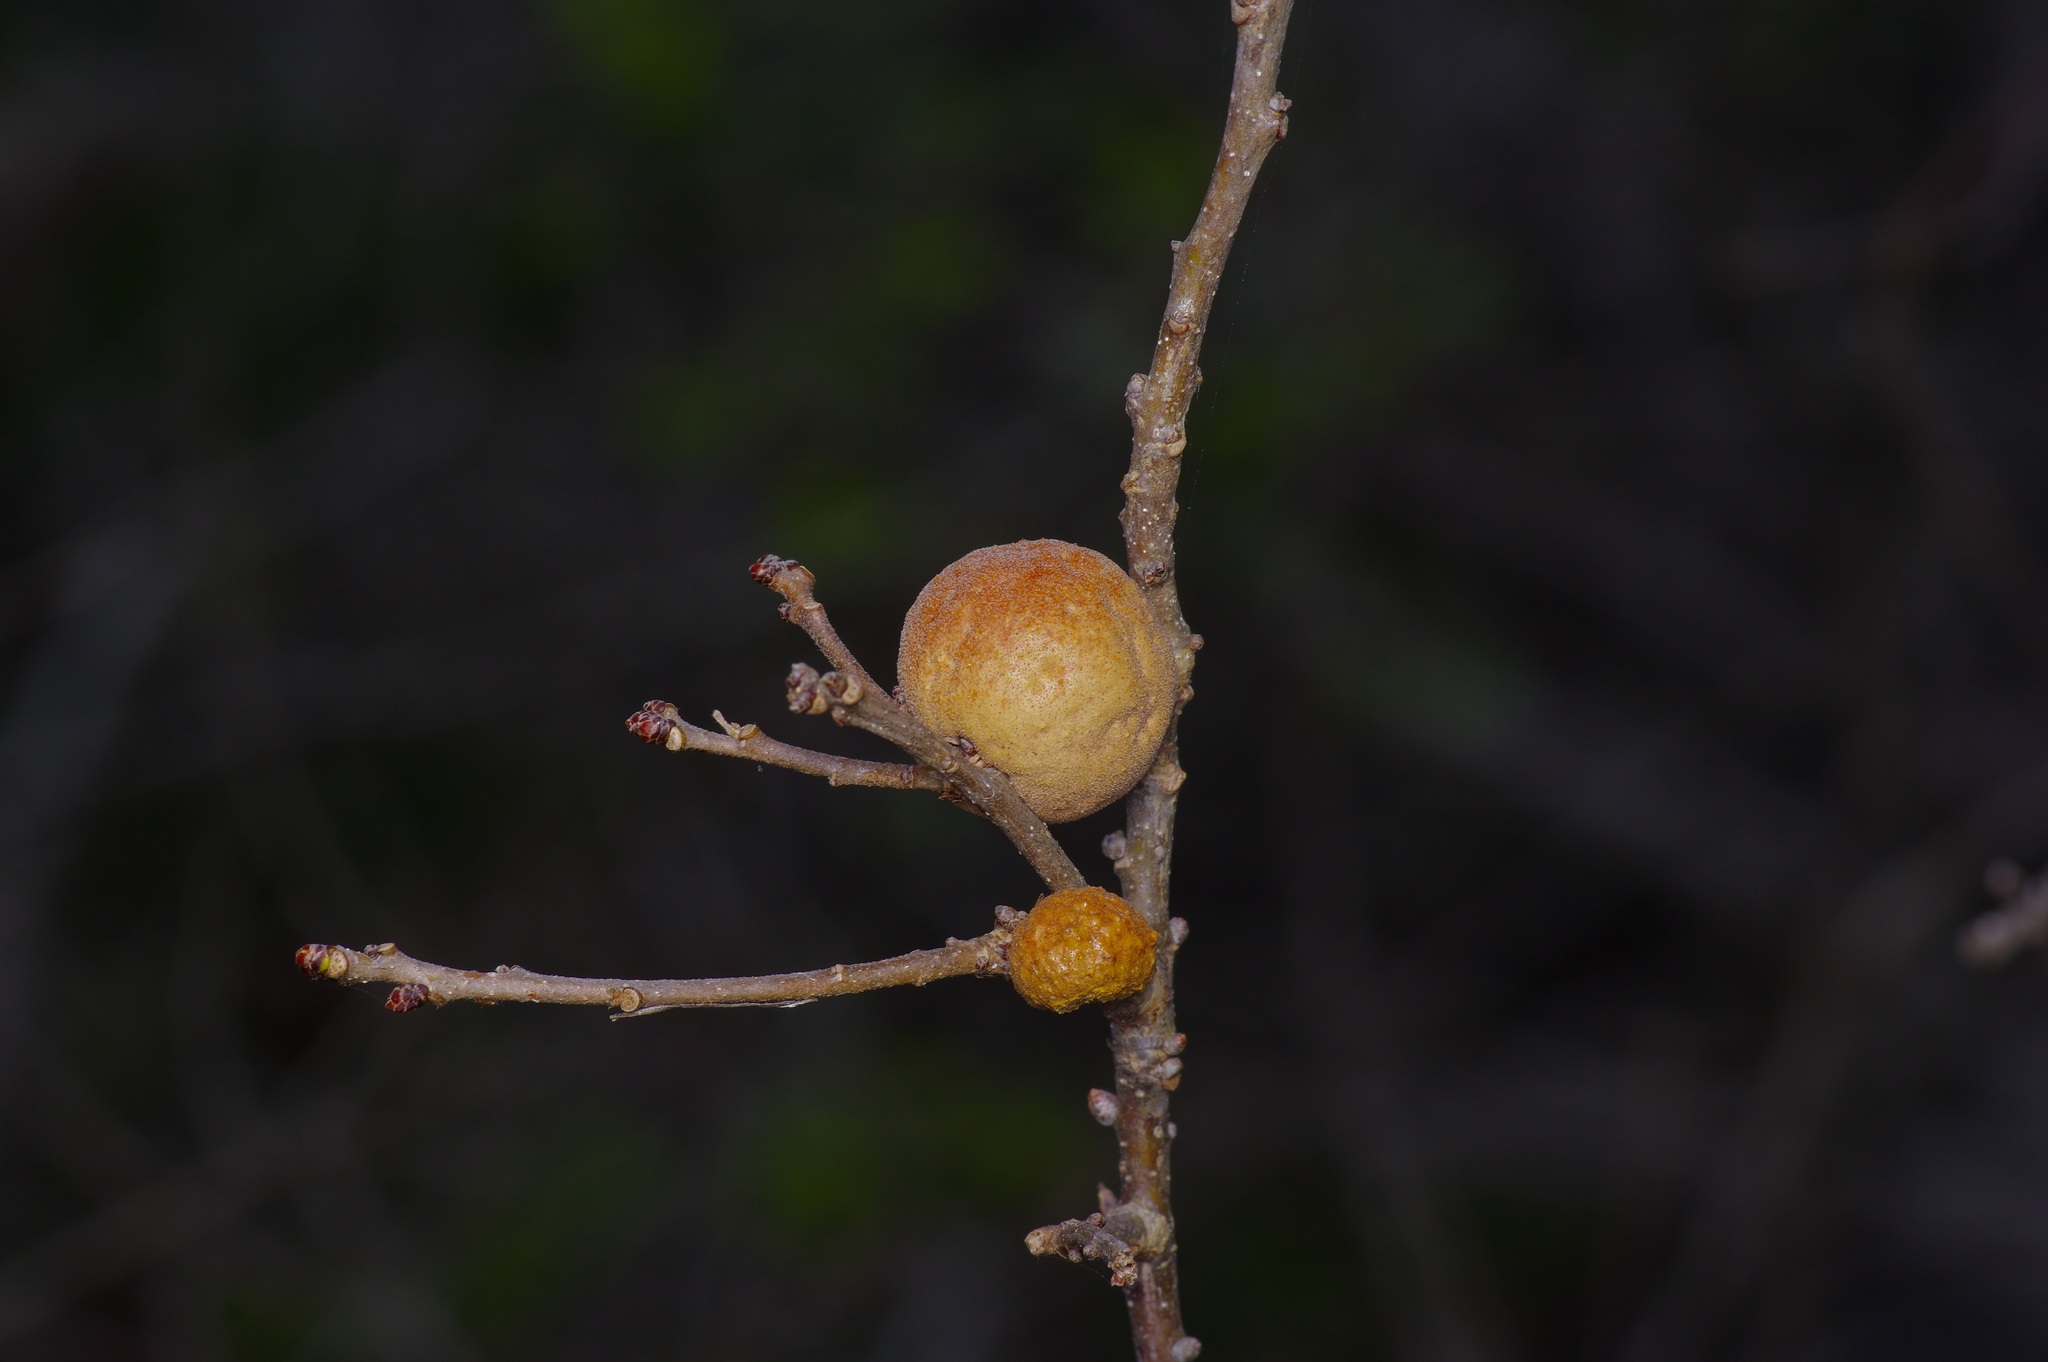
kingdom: Animalia
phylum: Arthropoda
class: Insecta
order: Hymenoptera
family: Cynipidae
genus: Disholcaspis
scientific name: Disholcaspis
